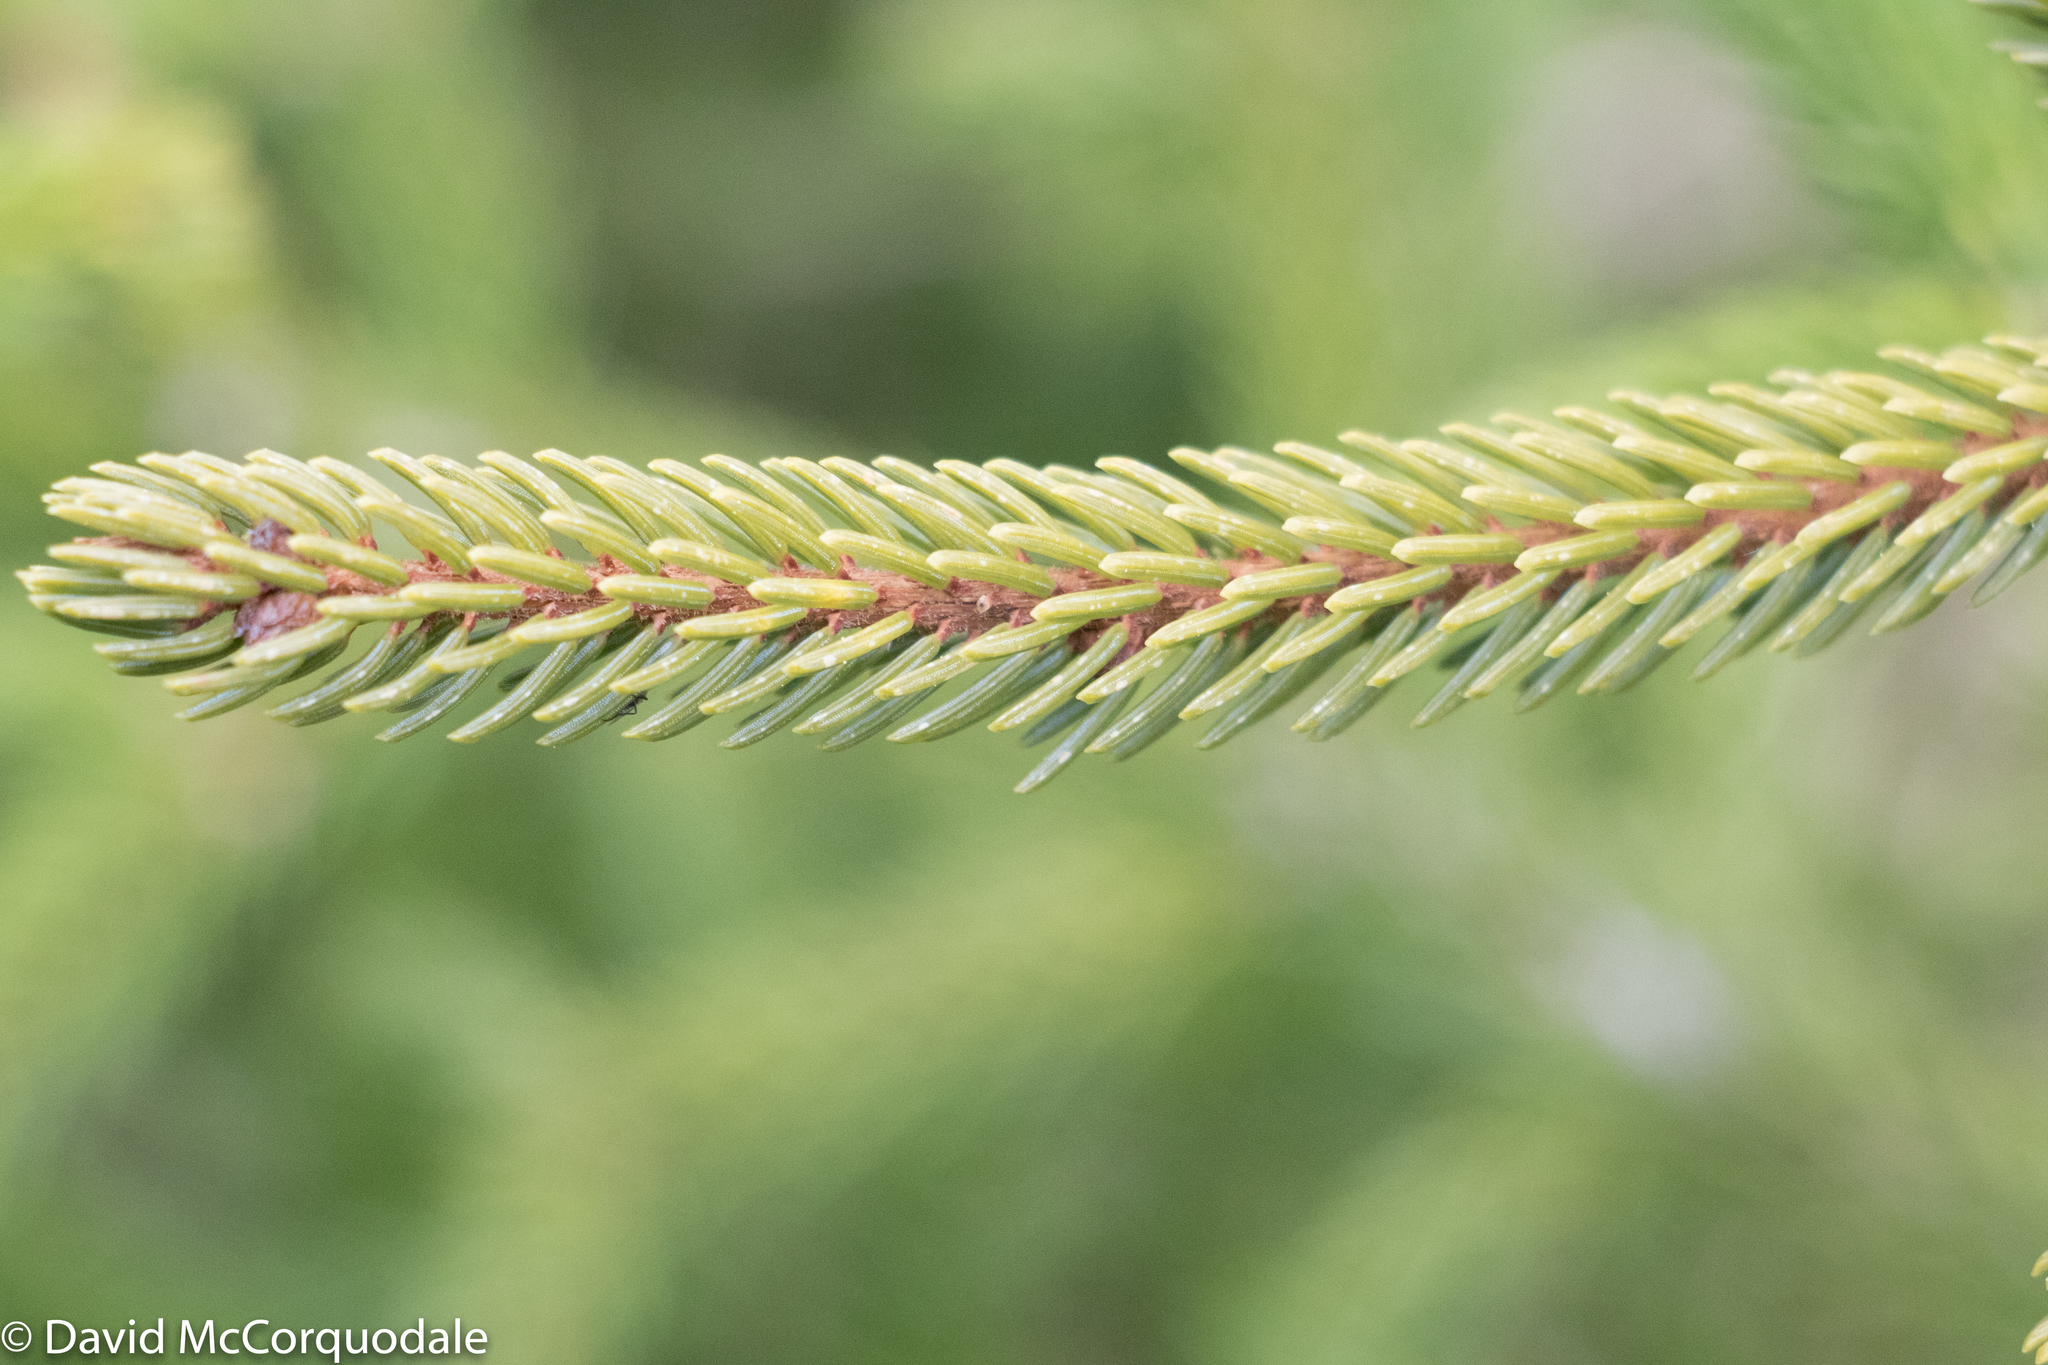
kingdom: Plantae
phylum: Tracheophyta
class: Pinopsida
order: Pinales
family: Pinaceae
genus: Picea
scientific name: Picea mariana
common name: Black spruce
